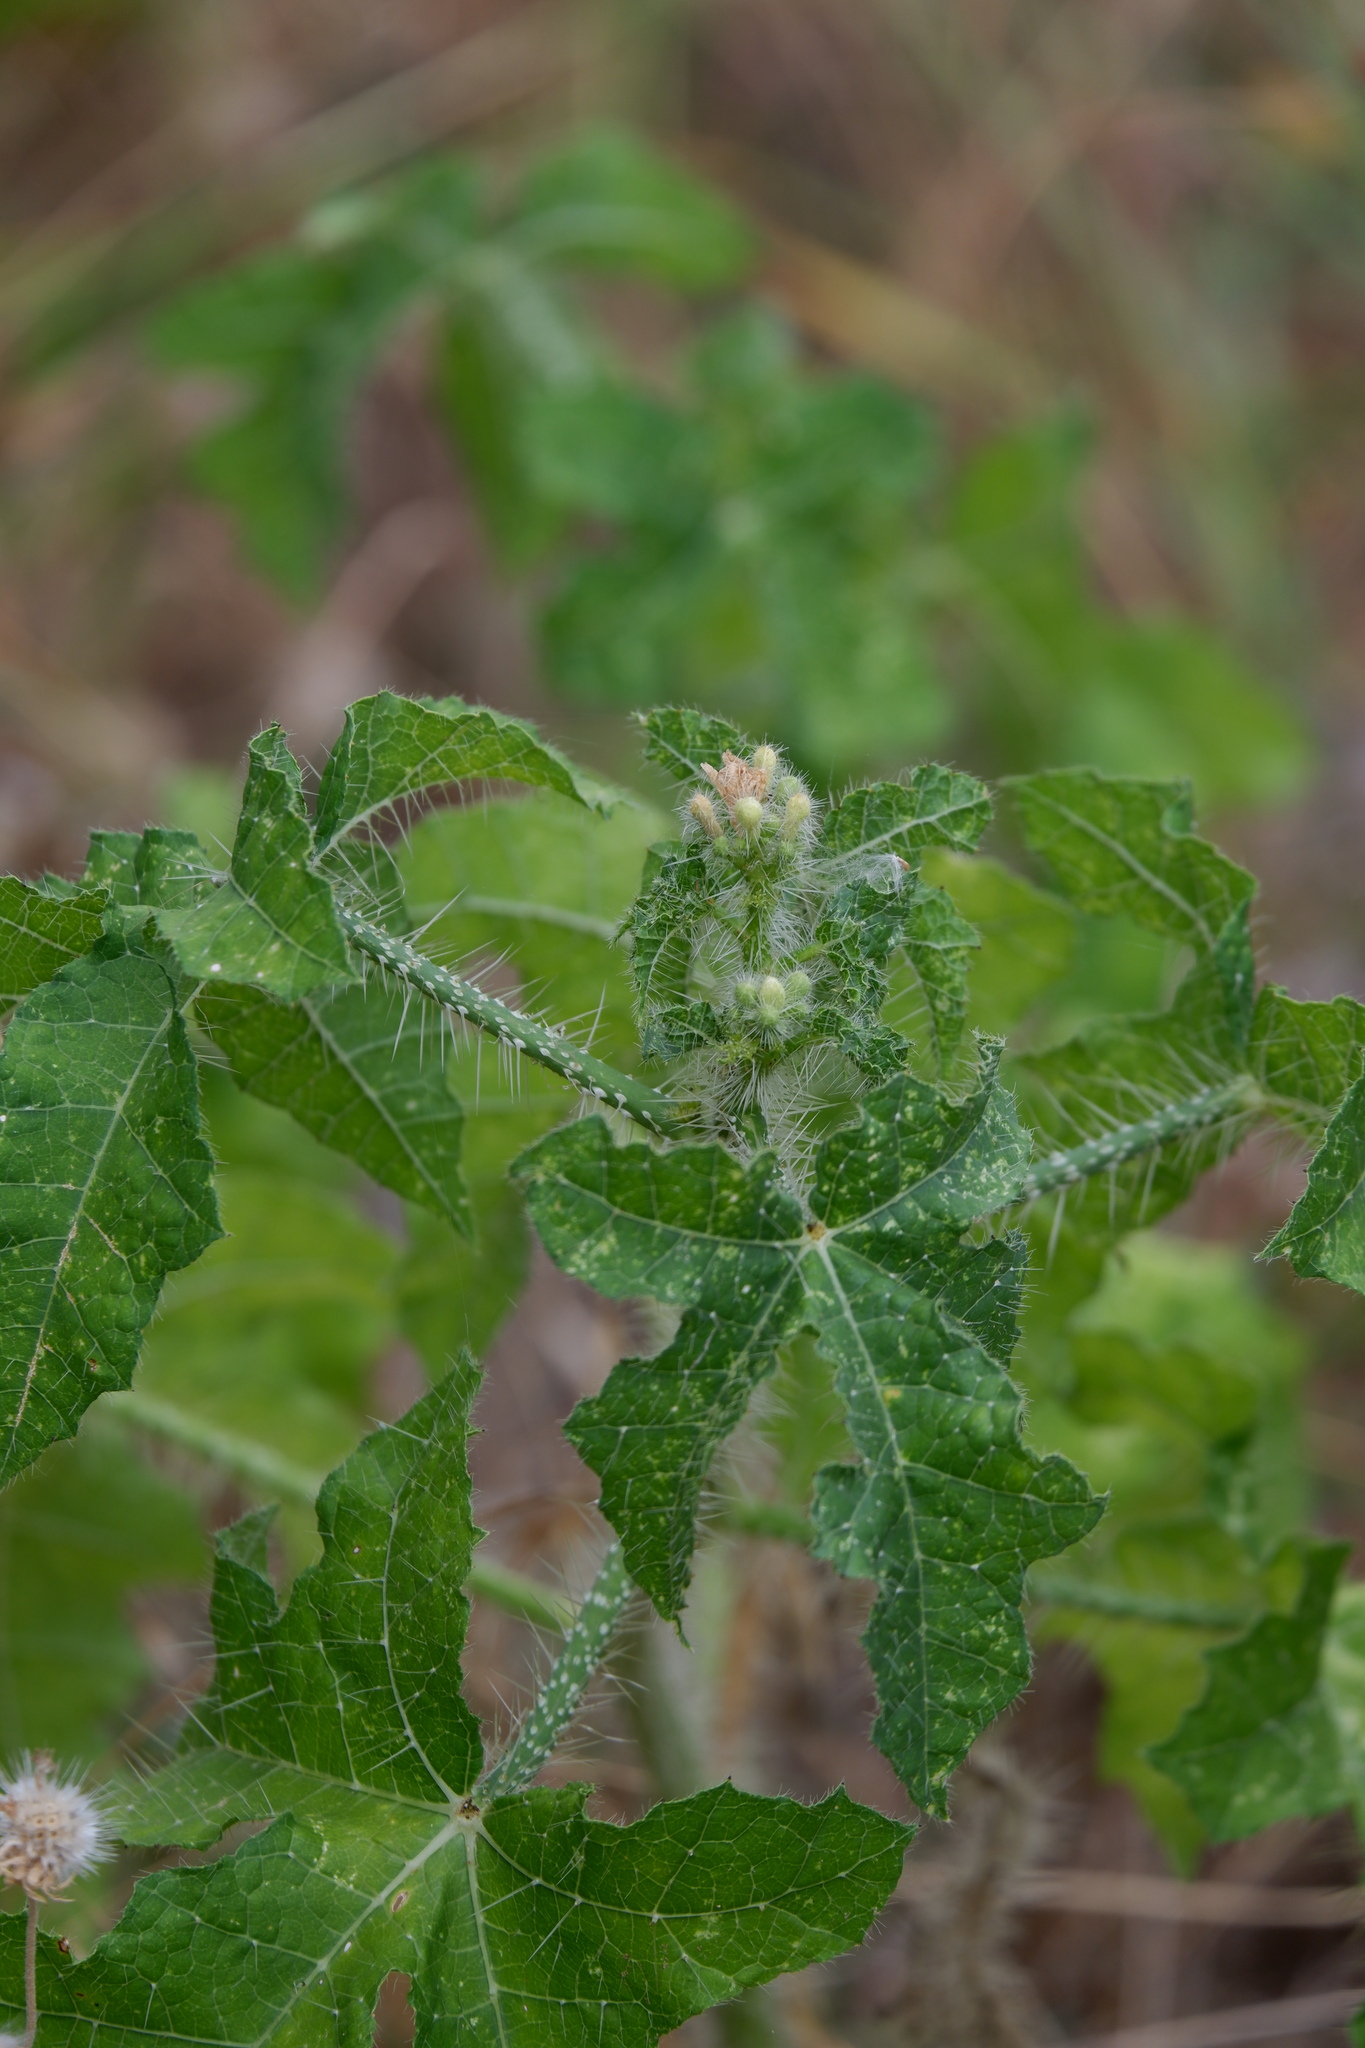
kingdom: Plantae
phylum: Tracheophyta
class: Magnoliopsida
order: Malpighiales
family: Euphorbiaceae
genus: Cnidoscolus
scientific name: Cnidoscolus texanus
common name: Texas bull-nettle
